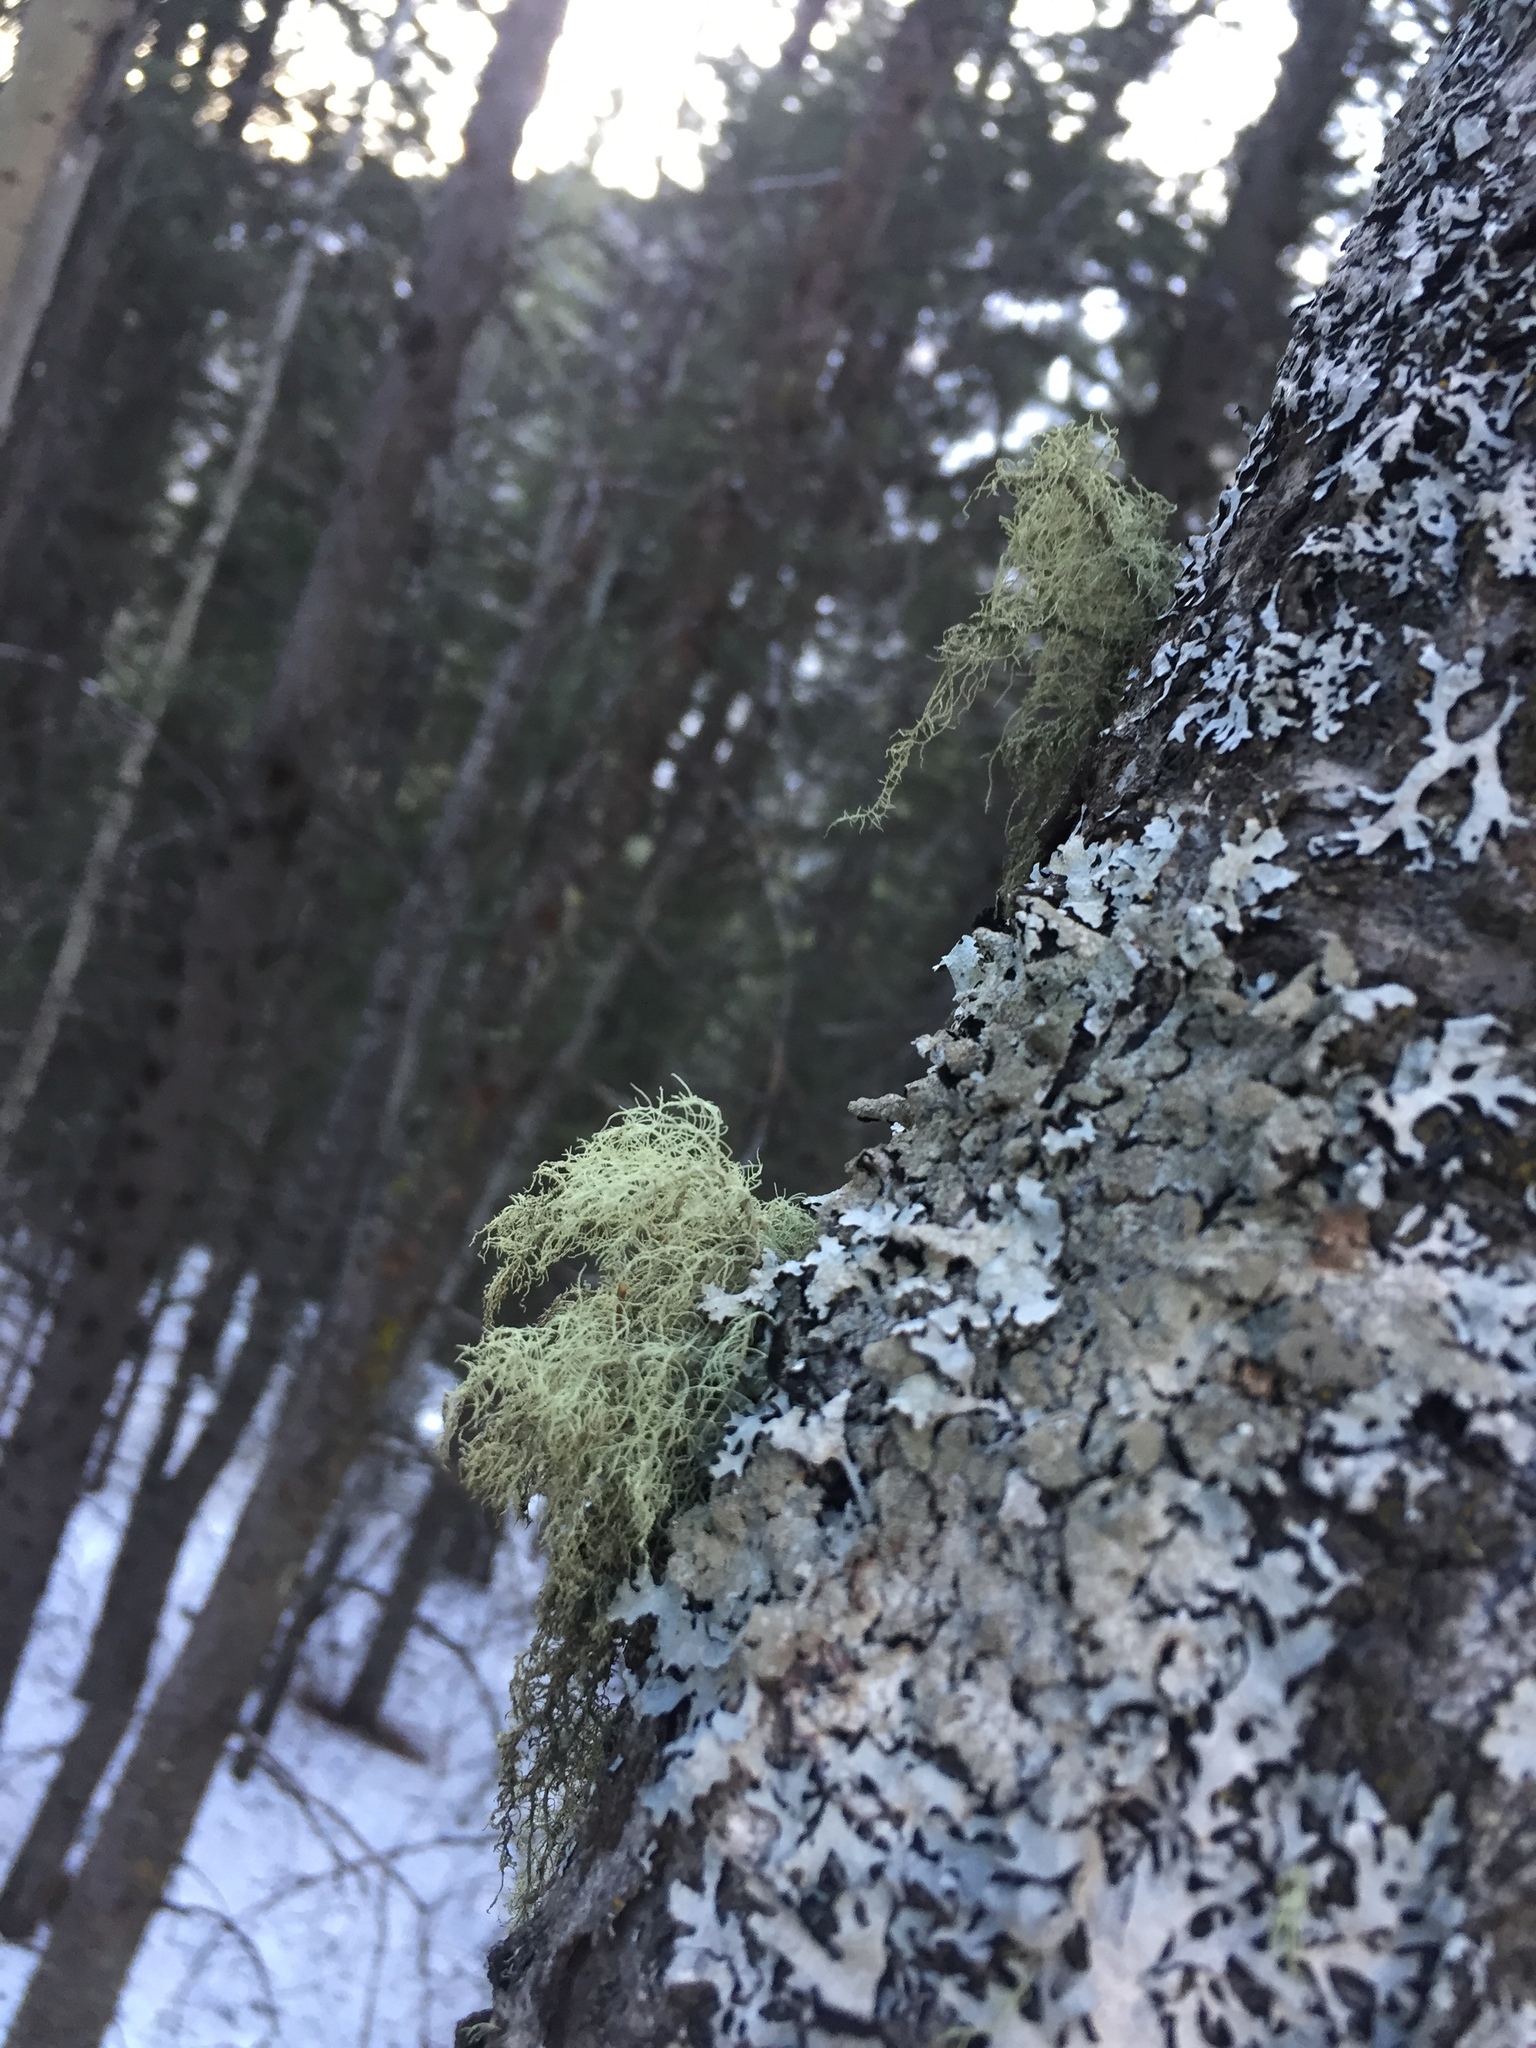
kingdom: Fungi
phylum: Ascomycota
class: Lecanoromycetes
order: Lecanorales
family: Parmeliaceae
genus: Usnea
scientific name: Usnea hirta
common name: Bristly beard lichen
